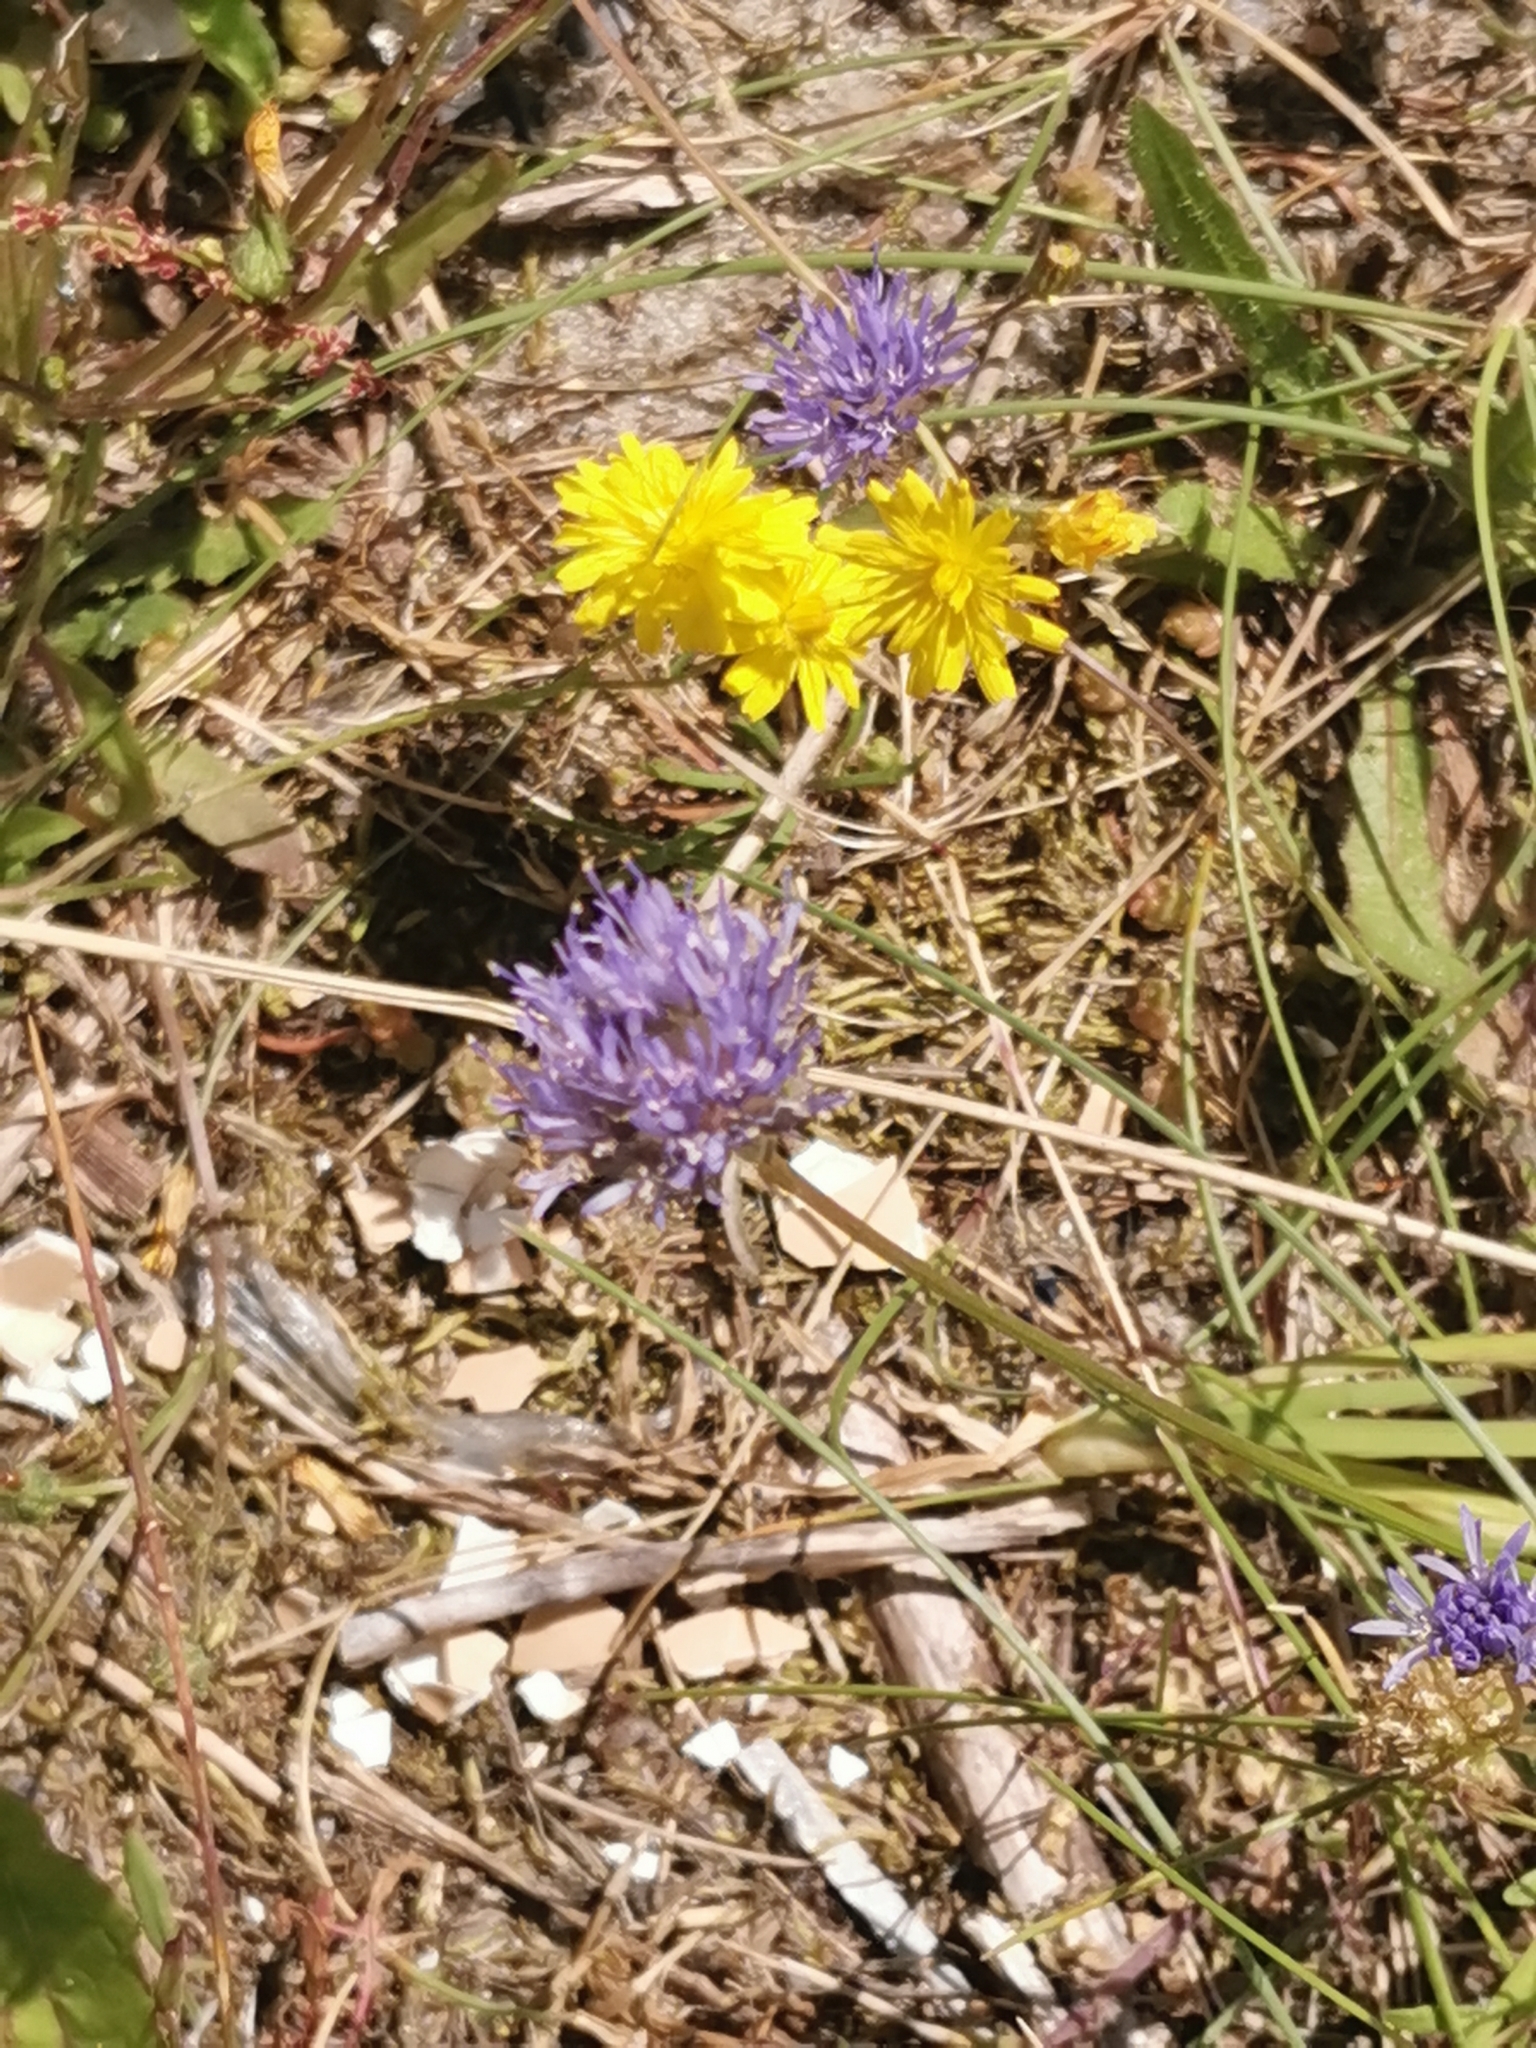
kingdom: Plantae
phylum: Tracheophyta
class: Magnoliopsida
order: Asterales
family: Campanulaceae
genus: Jasione
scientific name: Jasione montana
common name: Sheep's-bit
